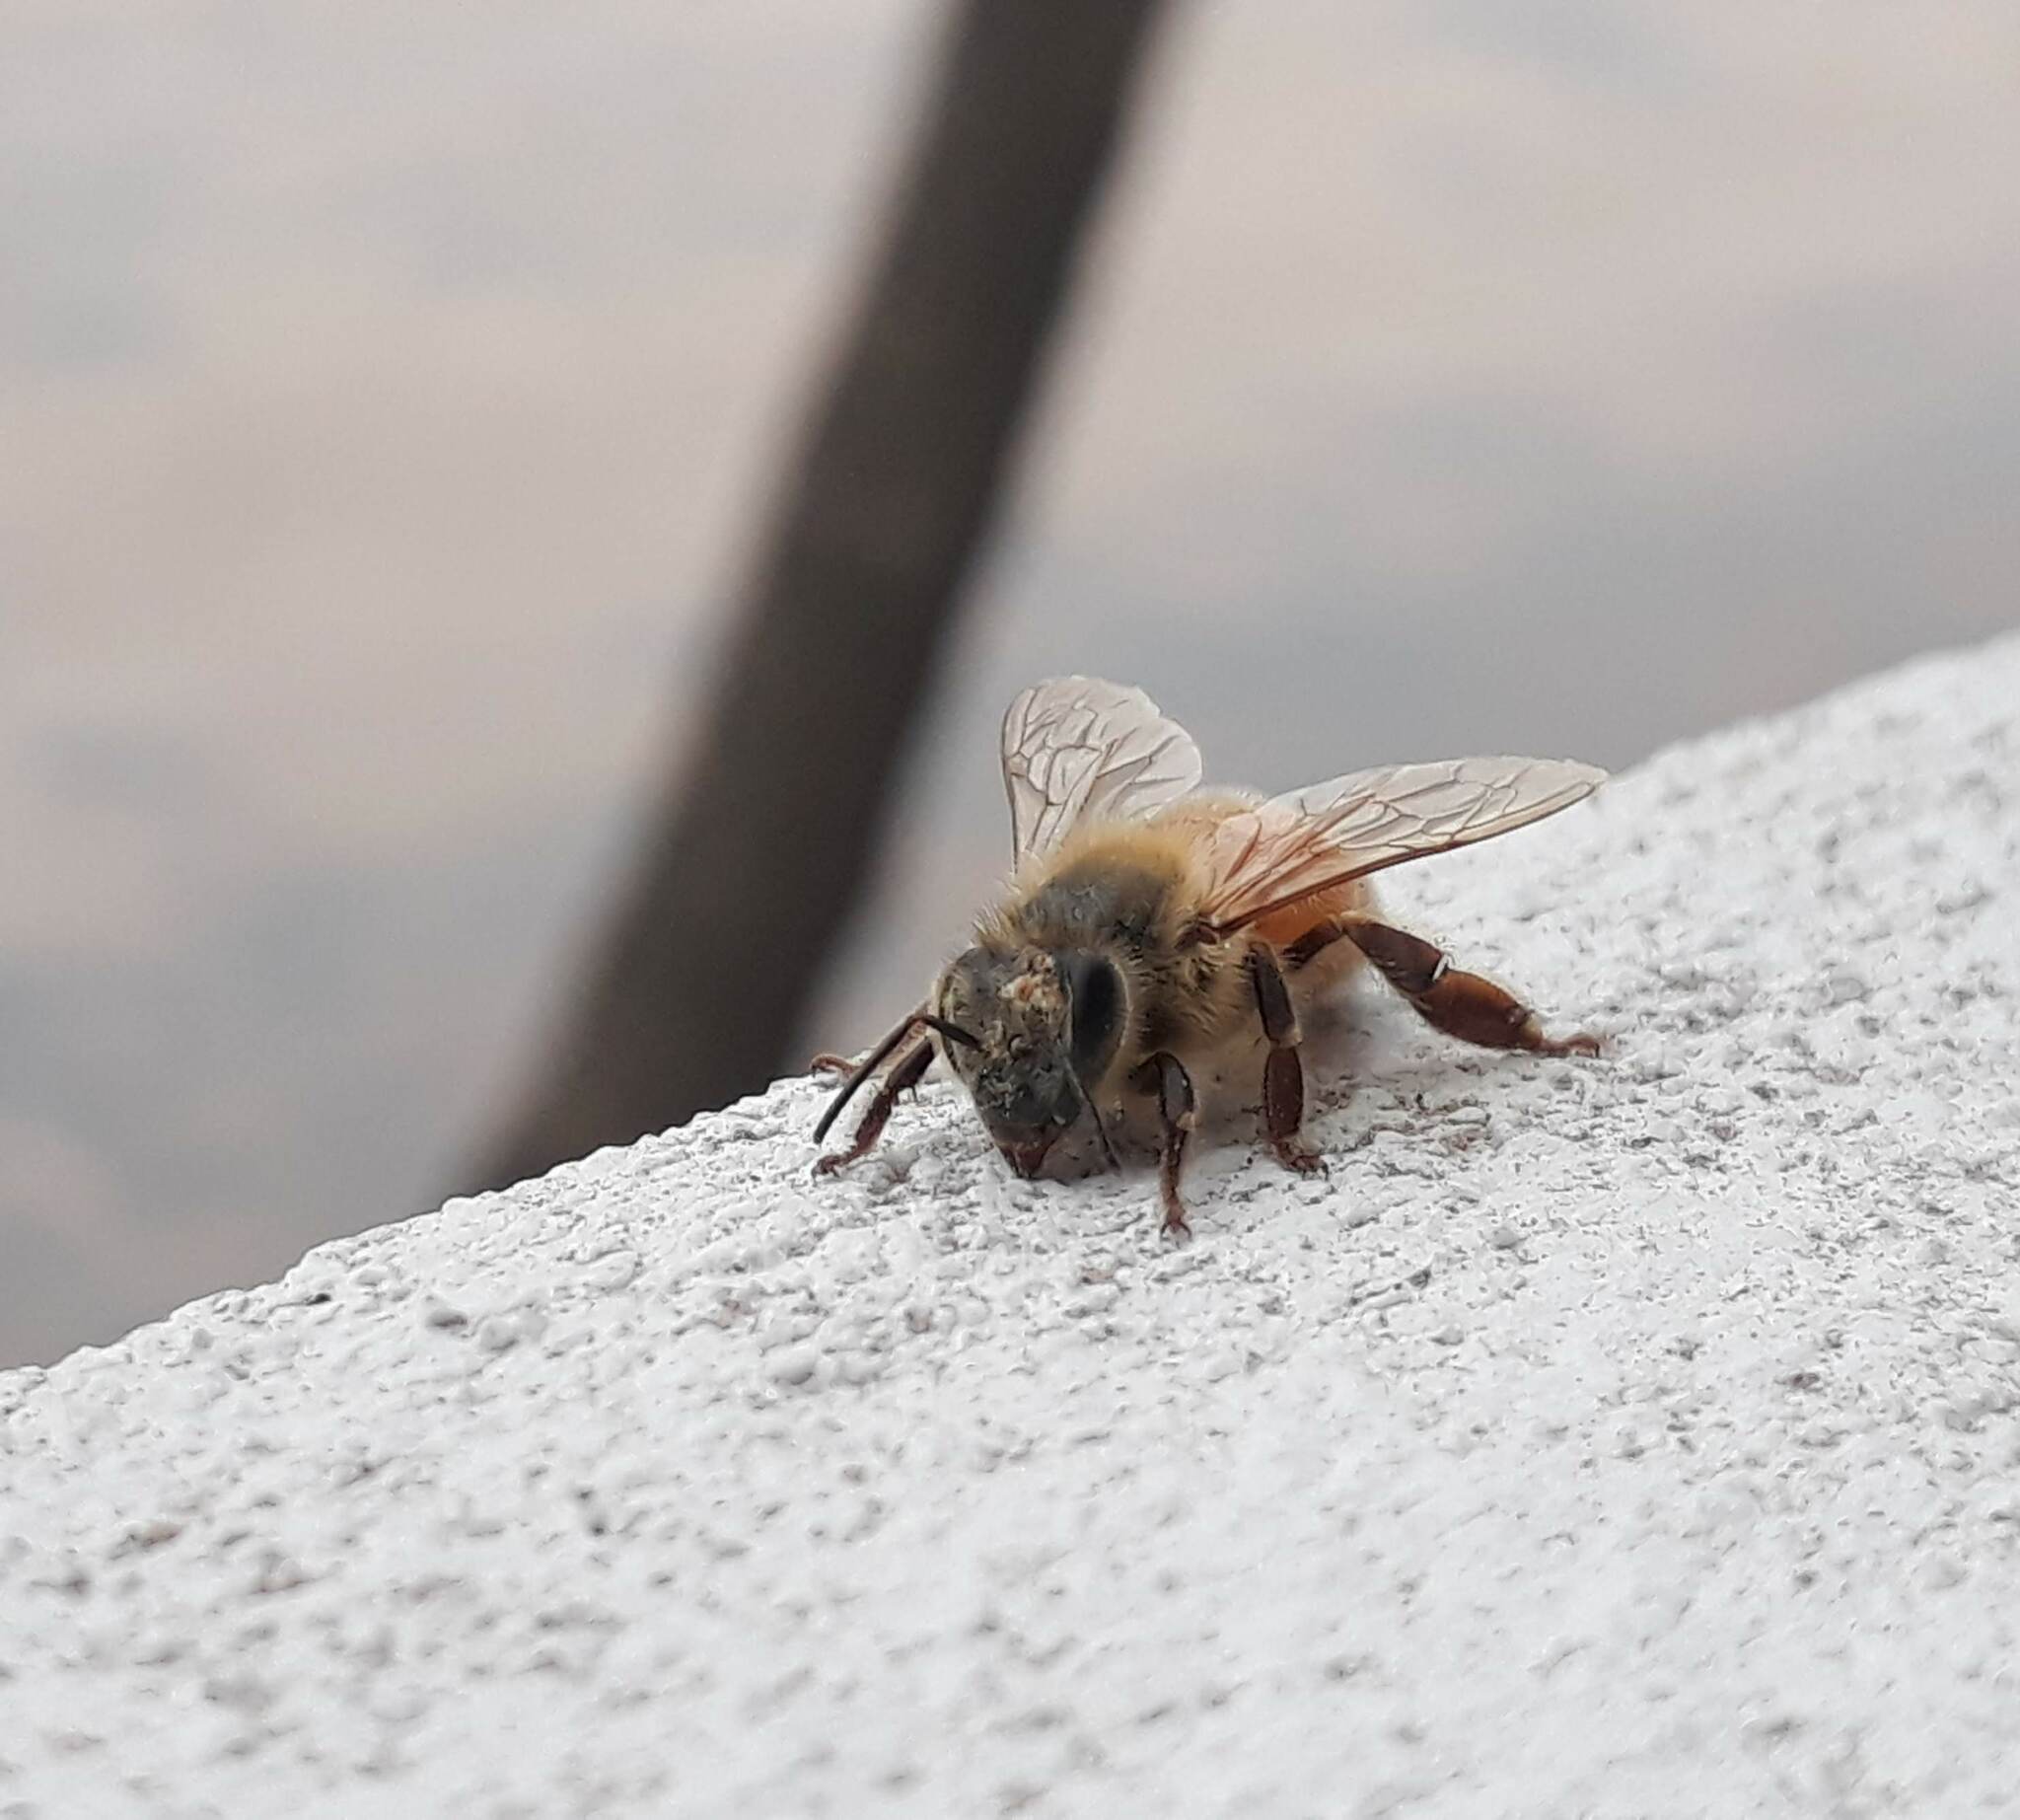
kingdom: Animalia
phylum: Arthropoda
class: Insecta
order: Hymenoptera
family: Apidae
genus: Apis
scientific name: Apis mellifera
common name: Honey bee
